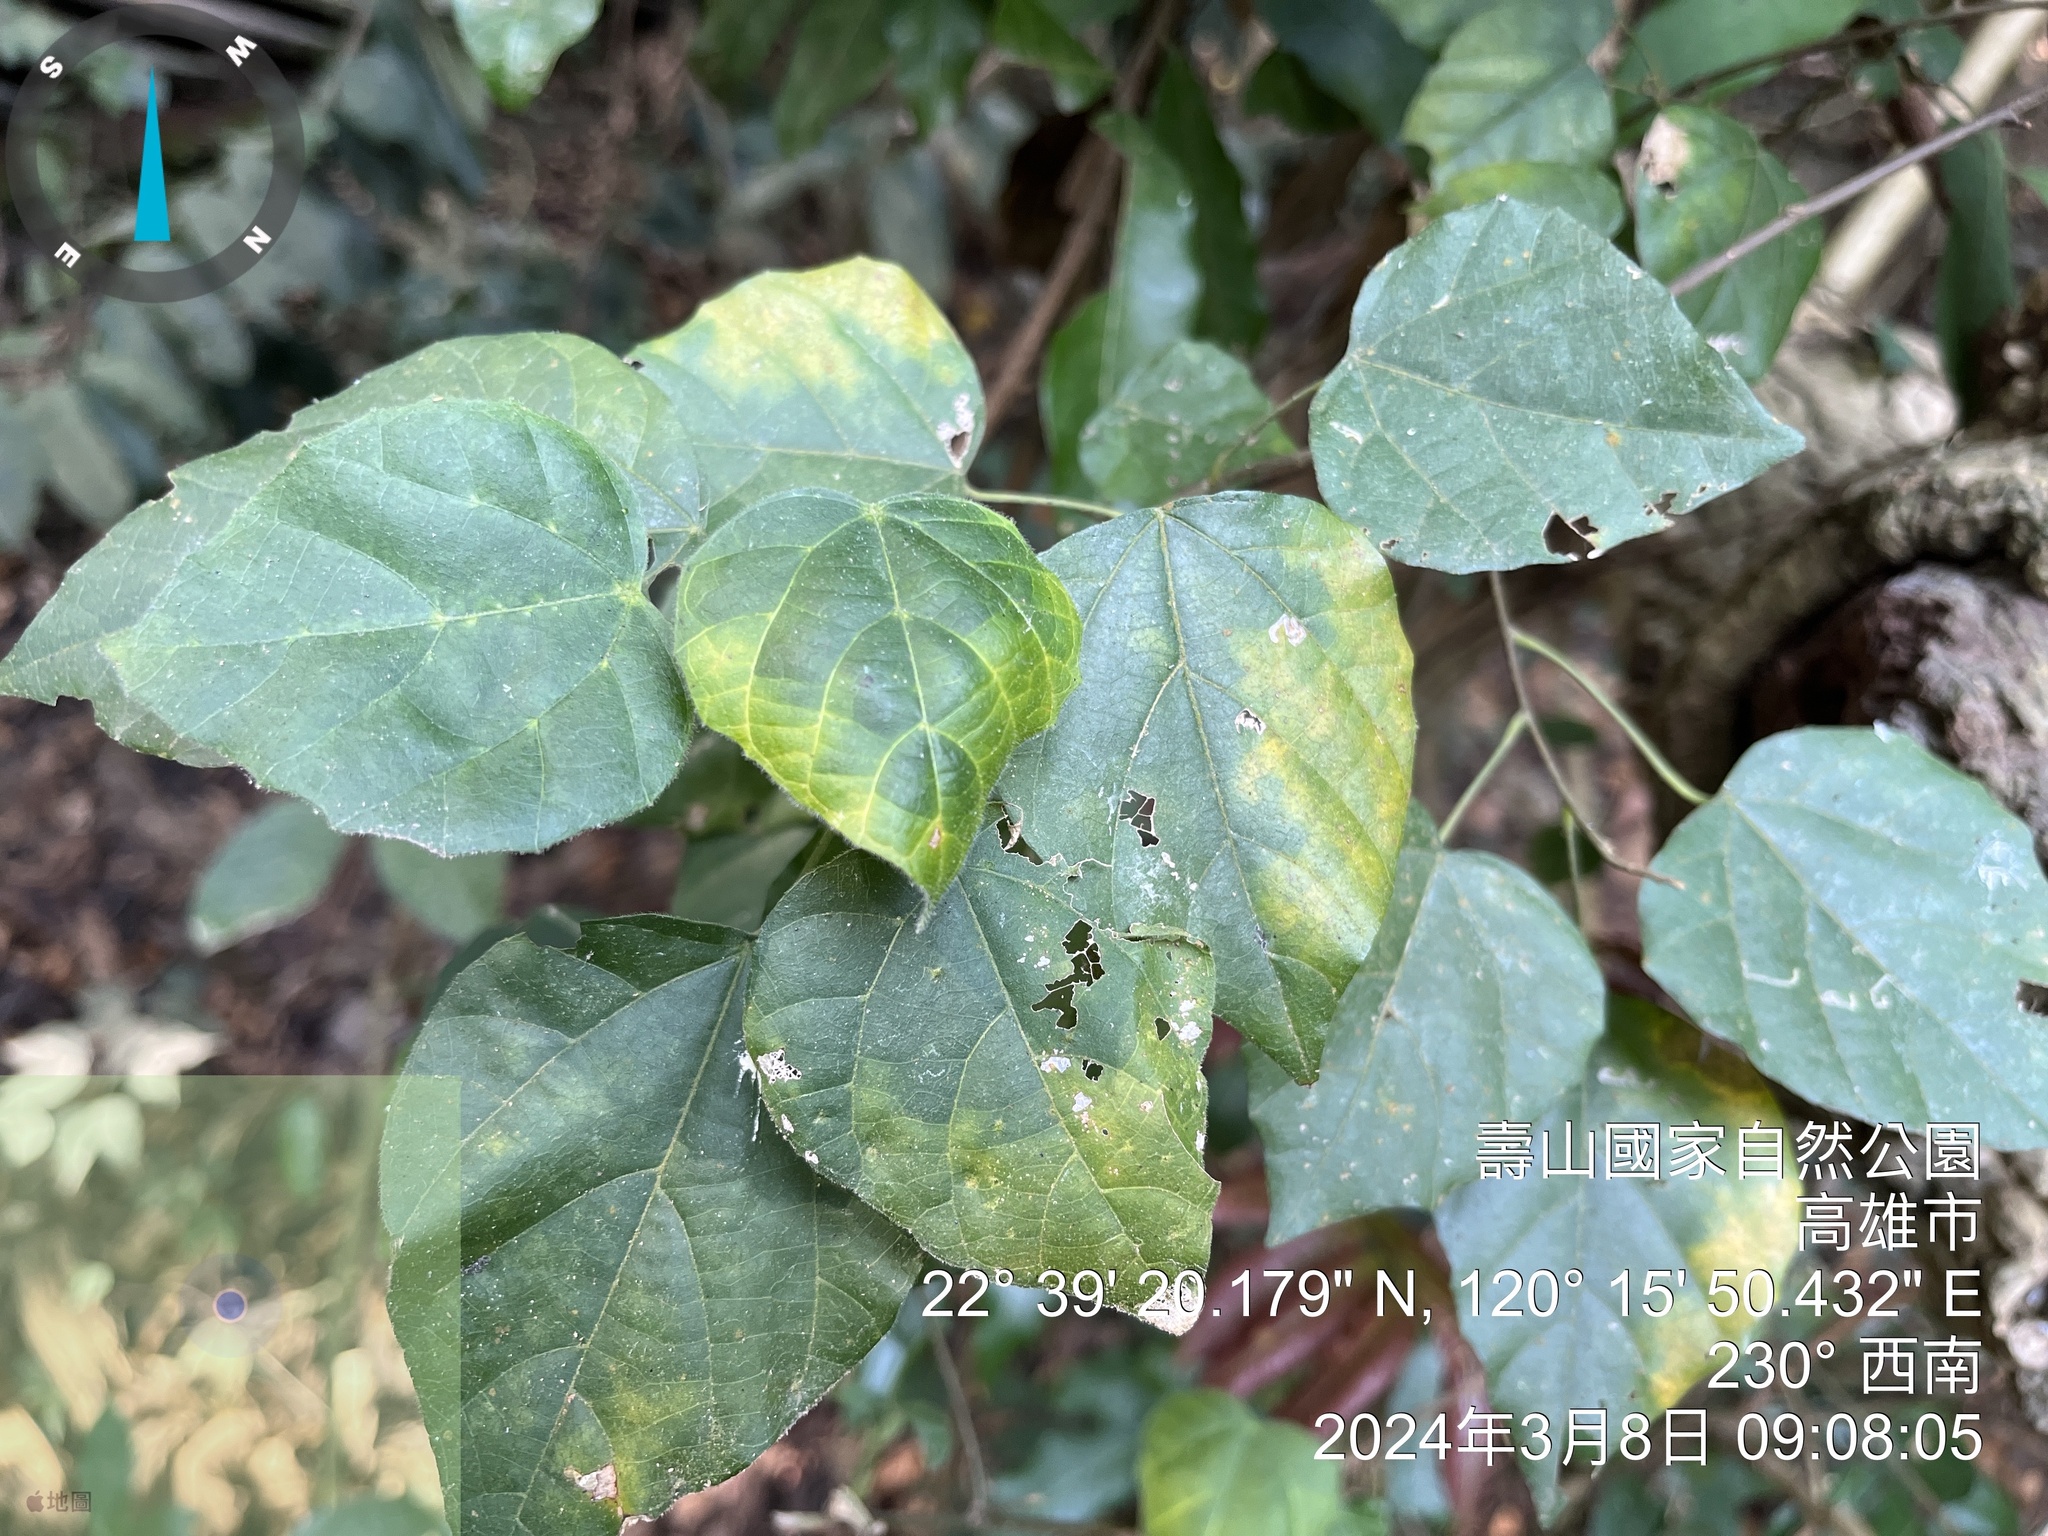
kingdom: Plantae
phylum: Tracheophyta
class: Magnoliopsida
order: Malpighiales
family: Euphorbiaceae
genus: Mallotus
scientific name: Mallotus repandus
